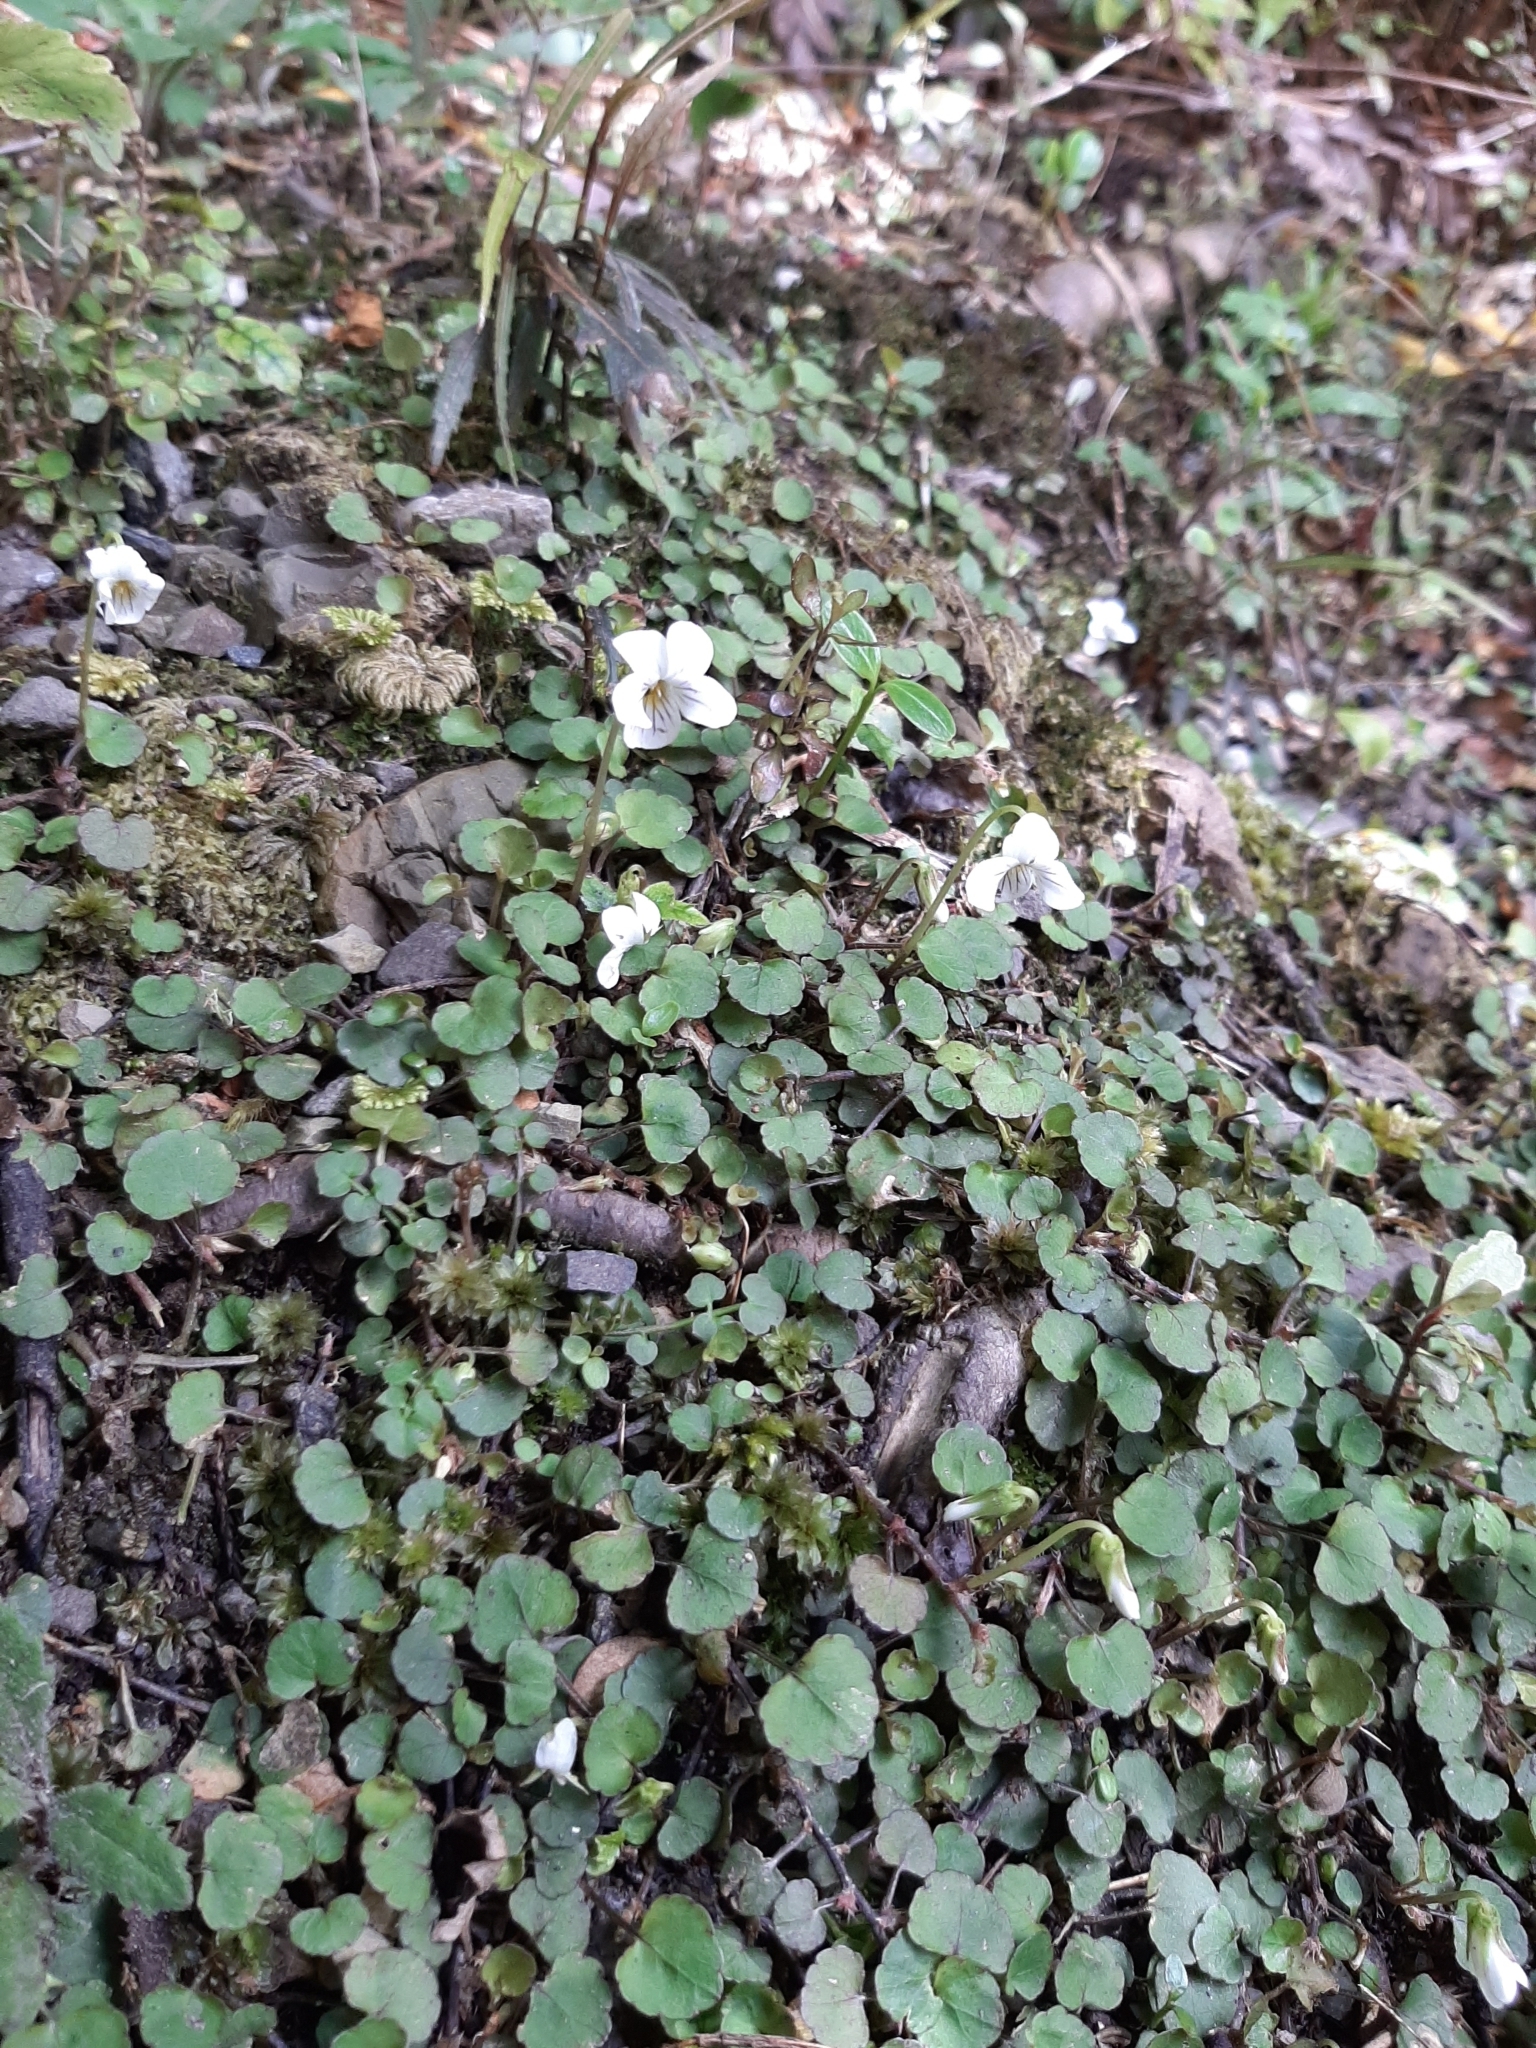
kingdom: Plantae
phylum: Tracheophyta
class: Magnoliopsida
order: Malpighiales
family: Violaceae
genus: Viola
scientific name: Viola filicaulis
